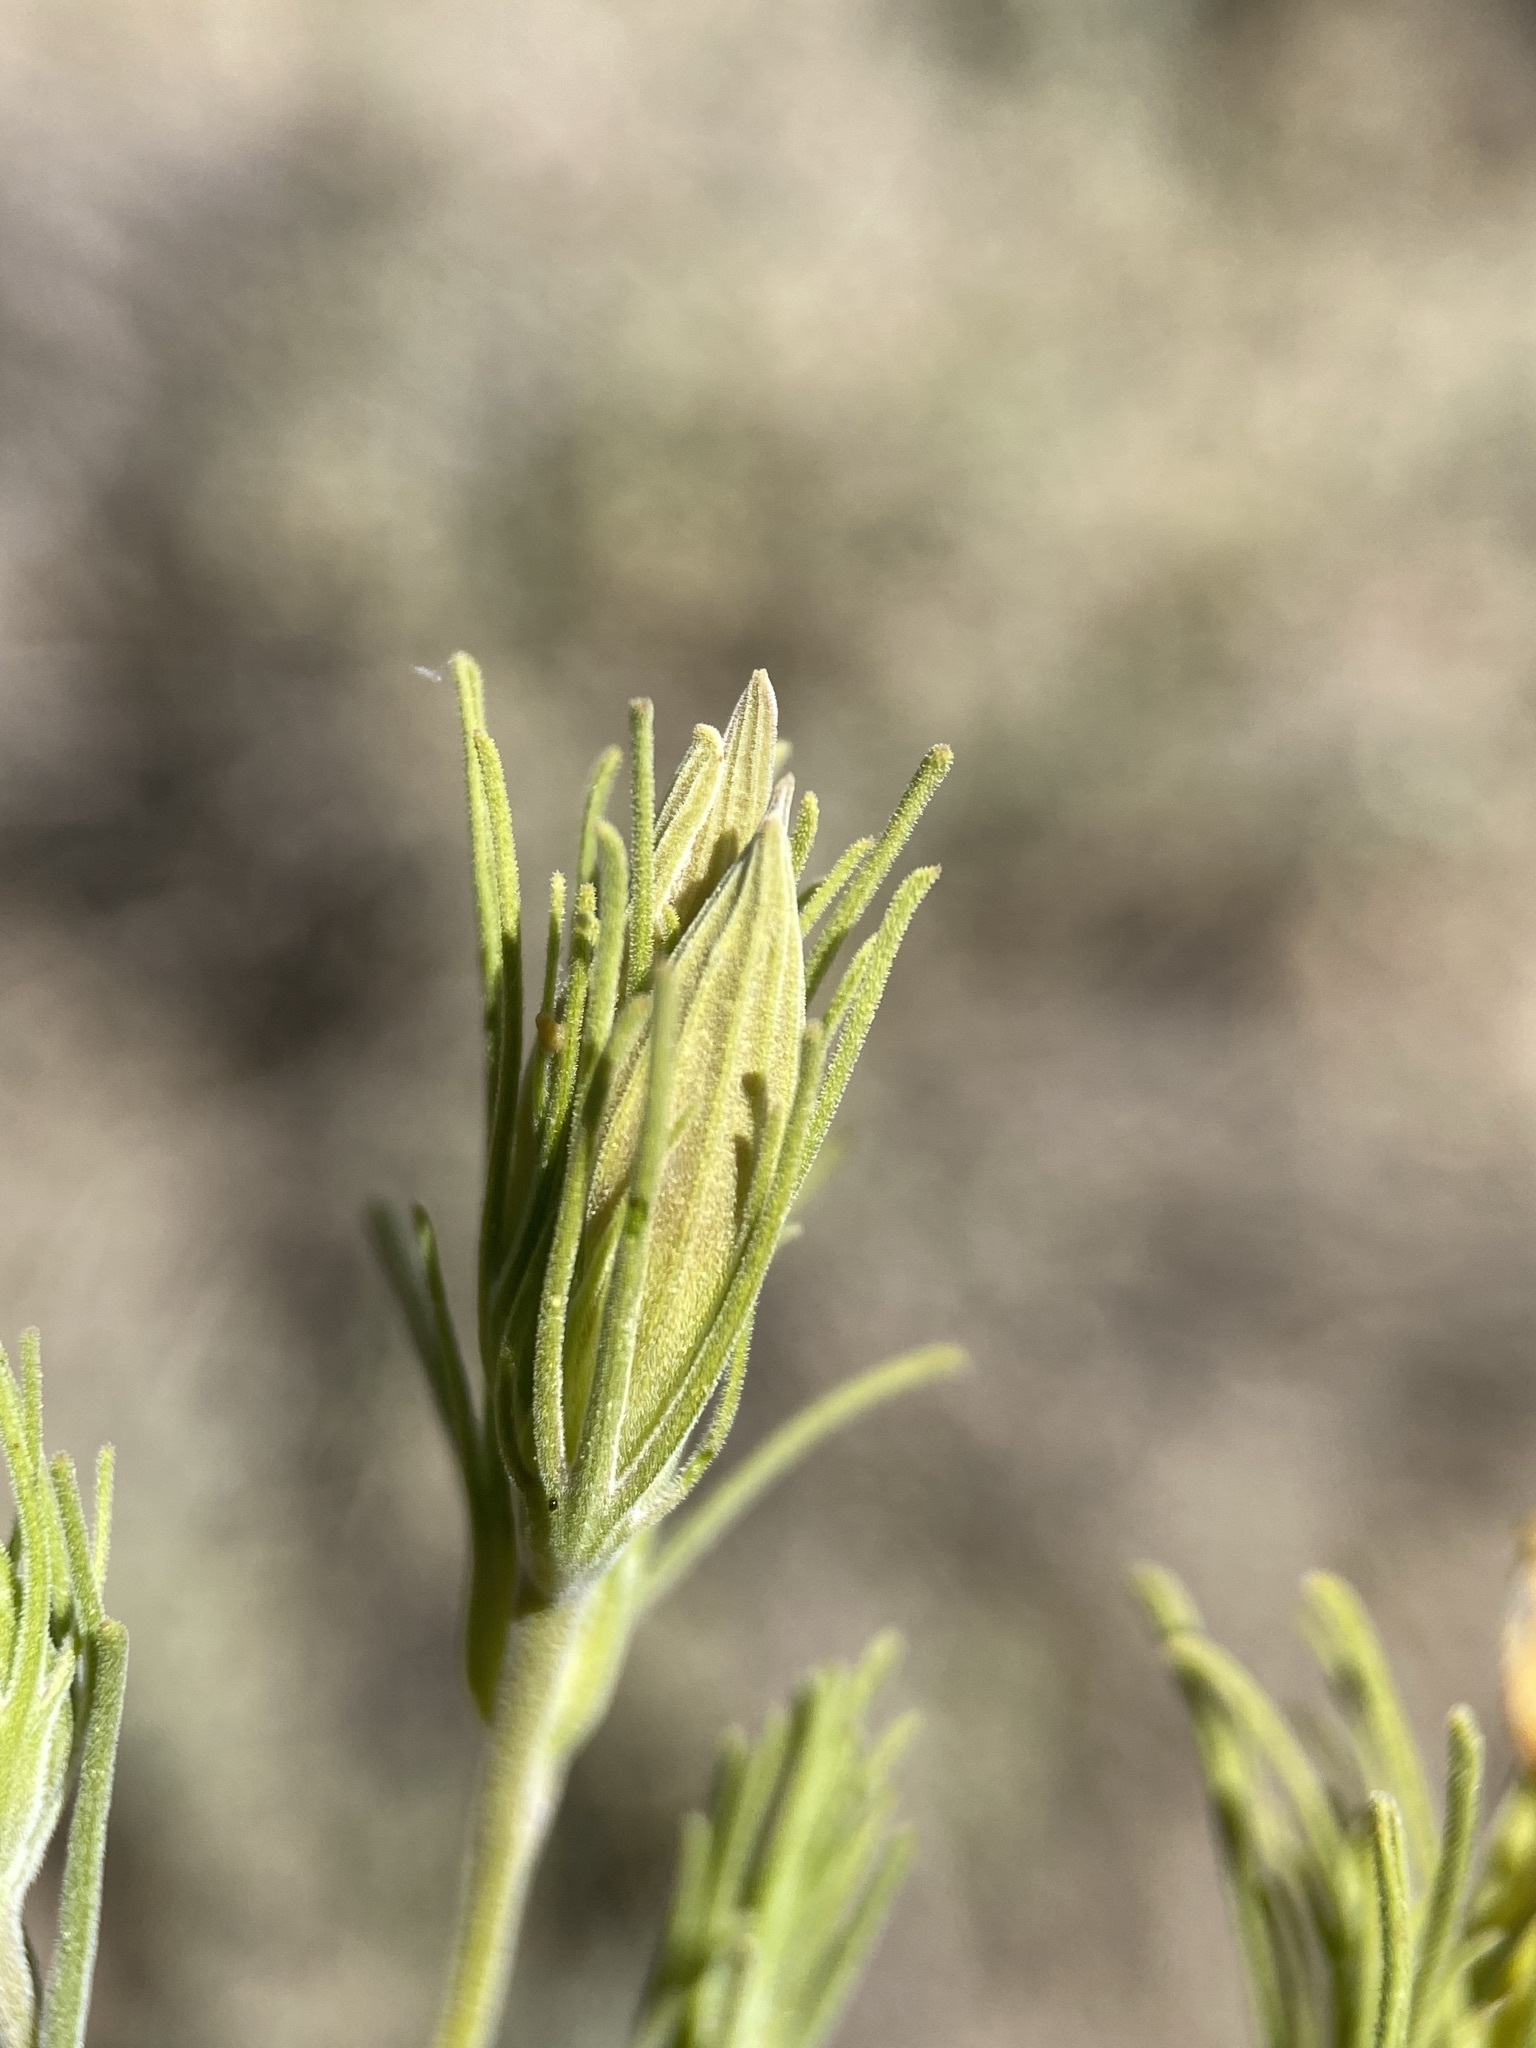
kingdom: Plantae
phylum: Tracheophyta
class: Magnoliopsida
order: Lamiales
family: Orobanchaceae
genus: Cordylanthus
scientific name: Cordylanthus ramosus
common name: Much-branched bird's-beak
